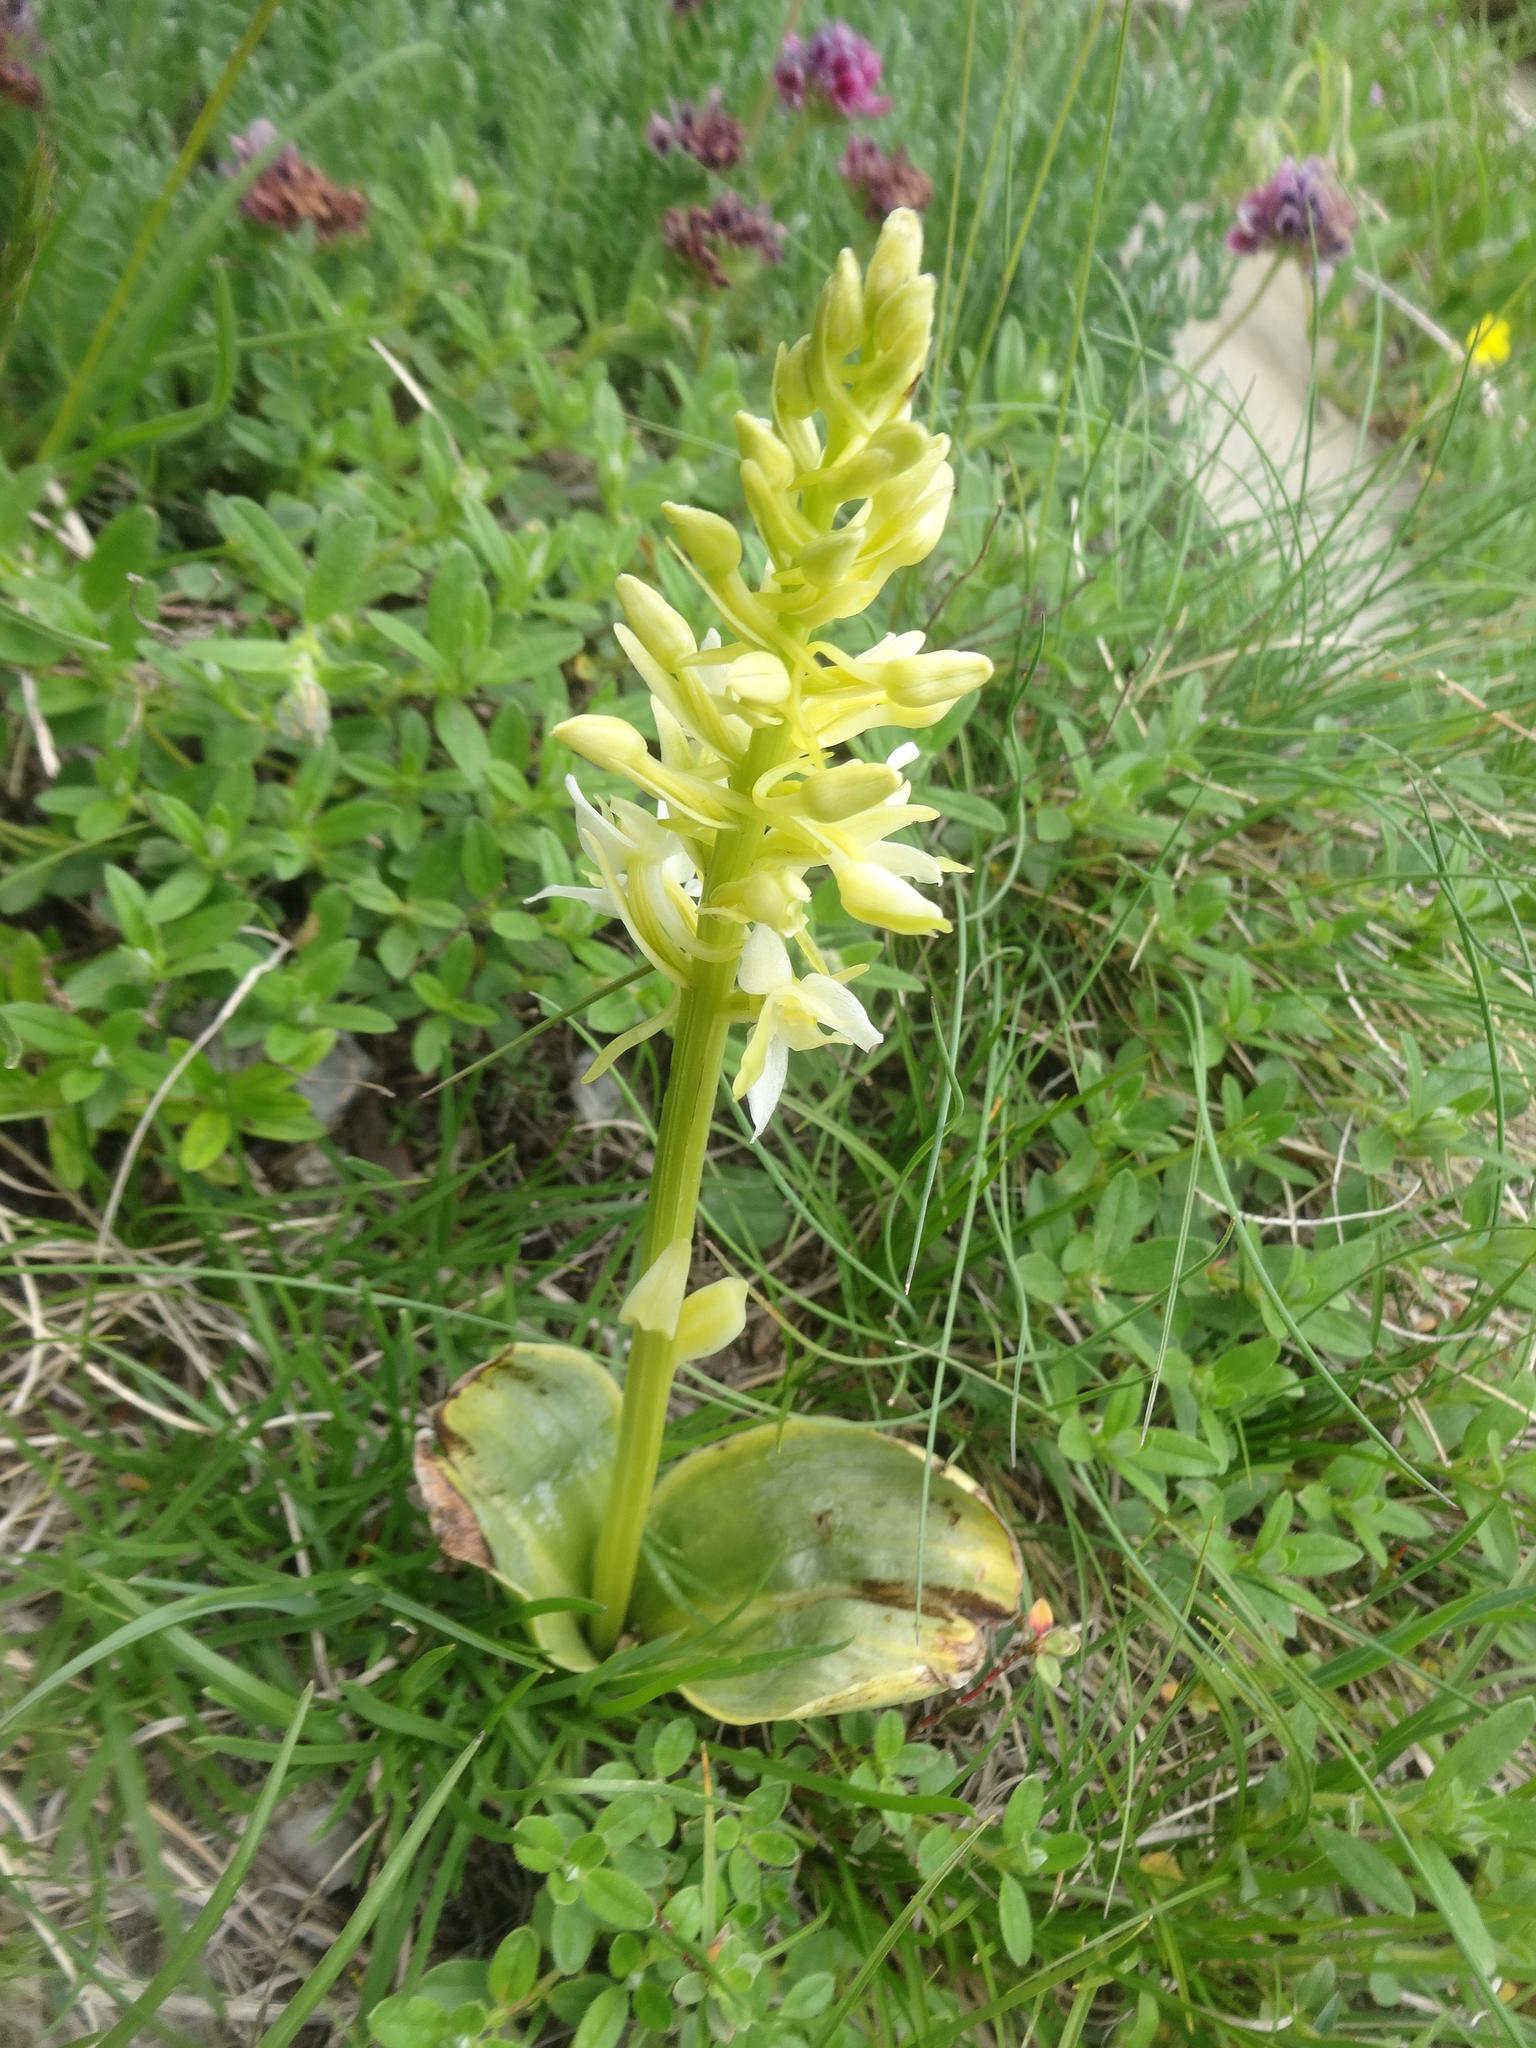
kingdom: Plantae
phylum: Tracheophyta
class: Liliopsida
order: Asparagales
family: Orchidaceae
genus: Platanthera
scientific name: Platanthera bifolia
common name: Lesser butterfly-orchid
